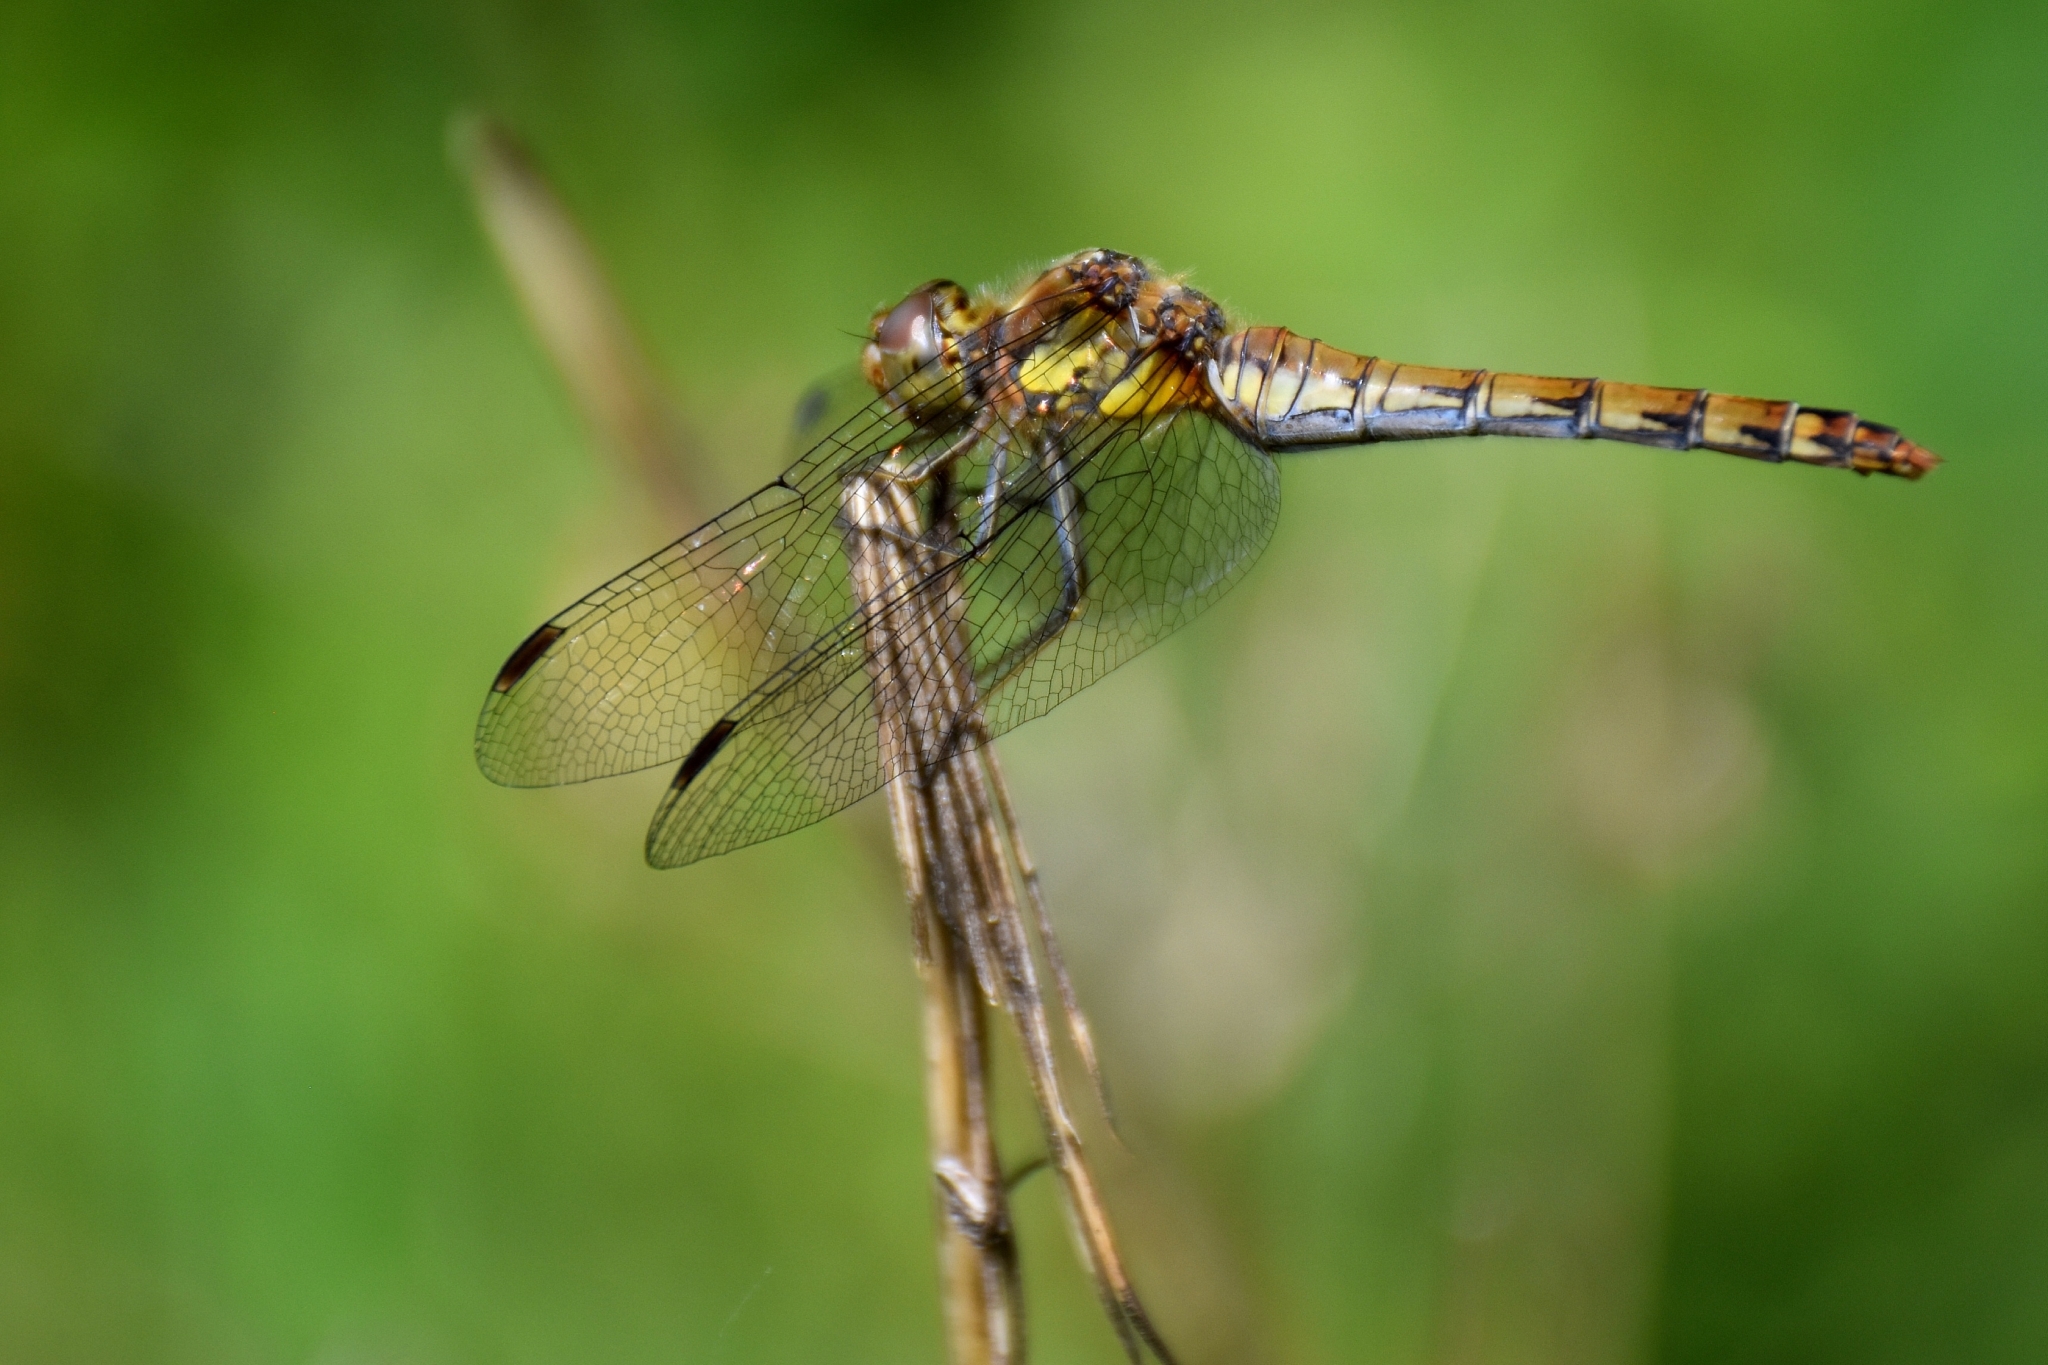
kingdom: Animalia
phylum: Arthropoda
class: Insecta
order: Odonata
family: Libellulidae
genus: Sympetrum
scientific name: Sympetrum striolatum
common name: Common darter
